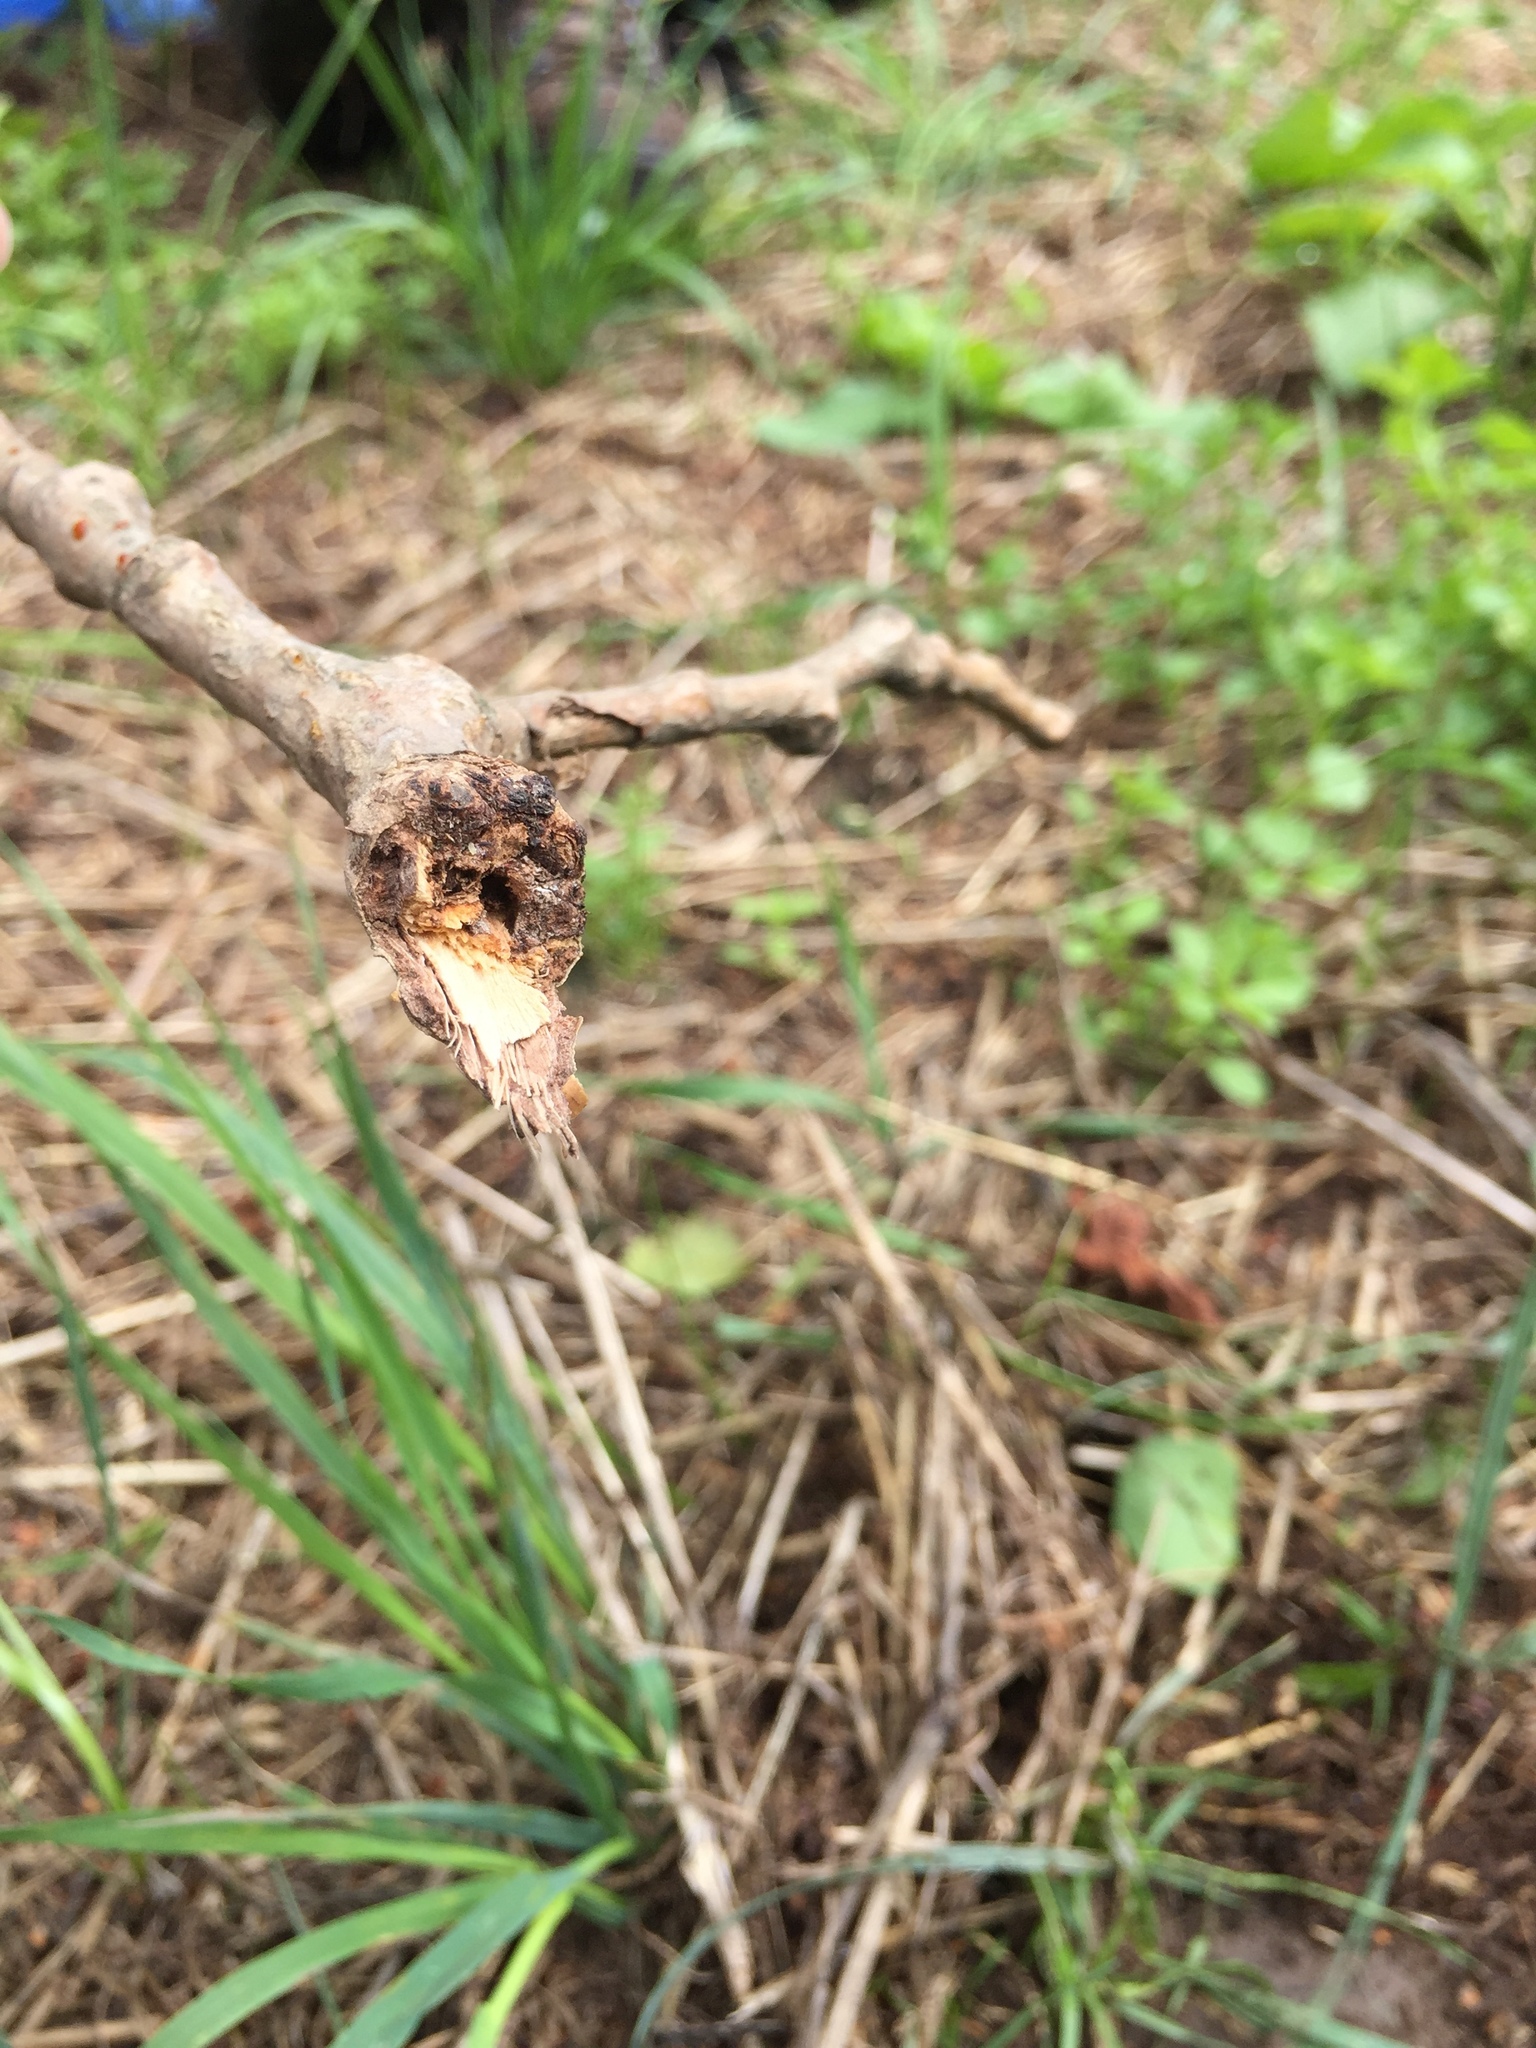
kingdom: Animalia
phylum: Arthropoda
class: Insecta
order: Coleoptera
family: Cerambycidae
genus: Saperda
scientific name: Saperda populnea
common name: Small poplar borer
